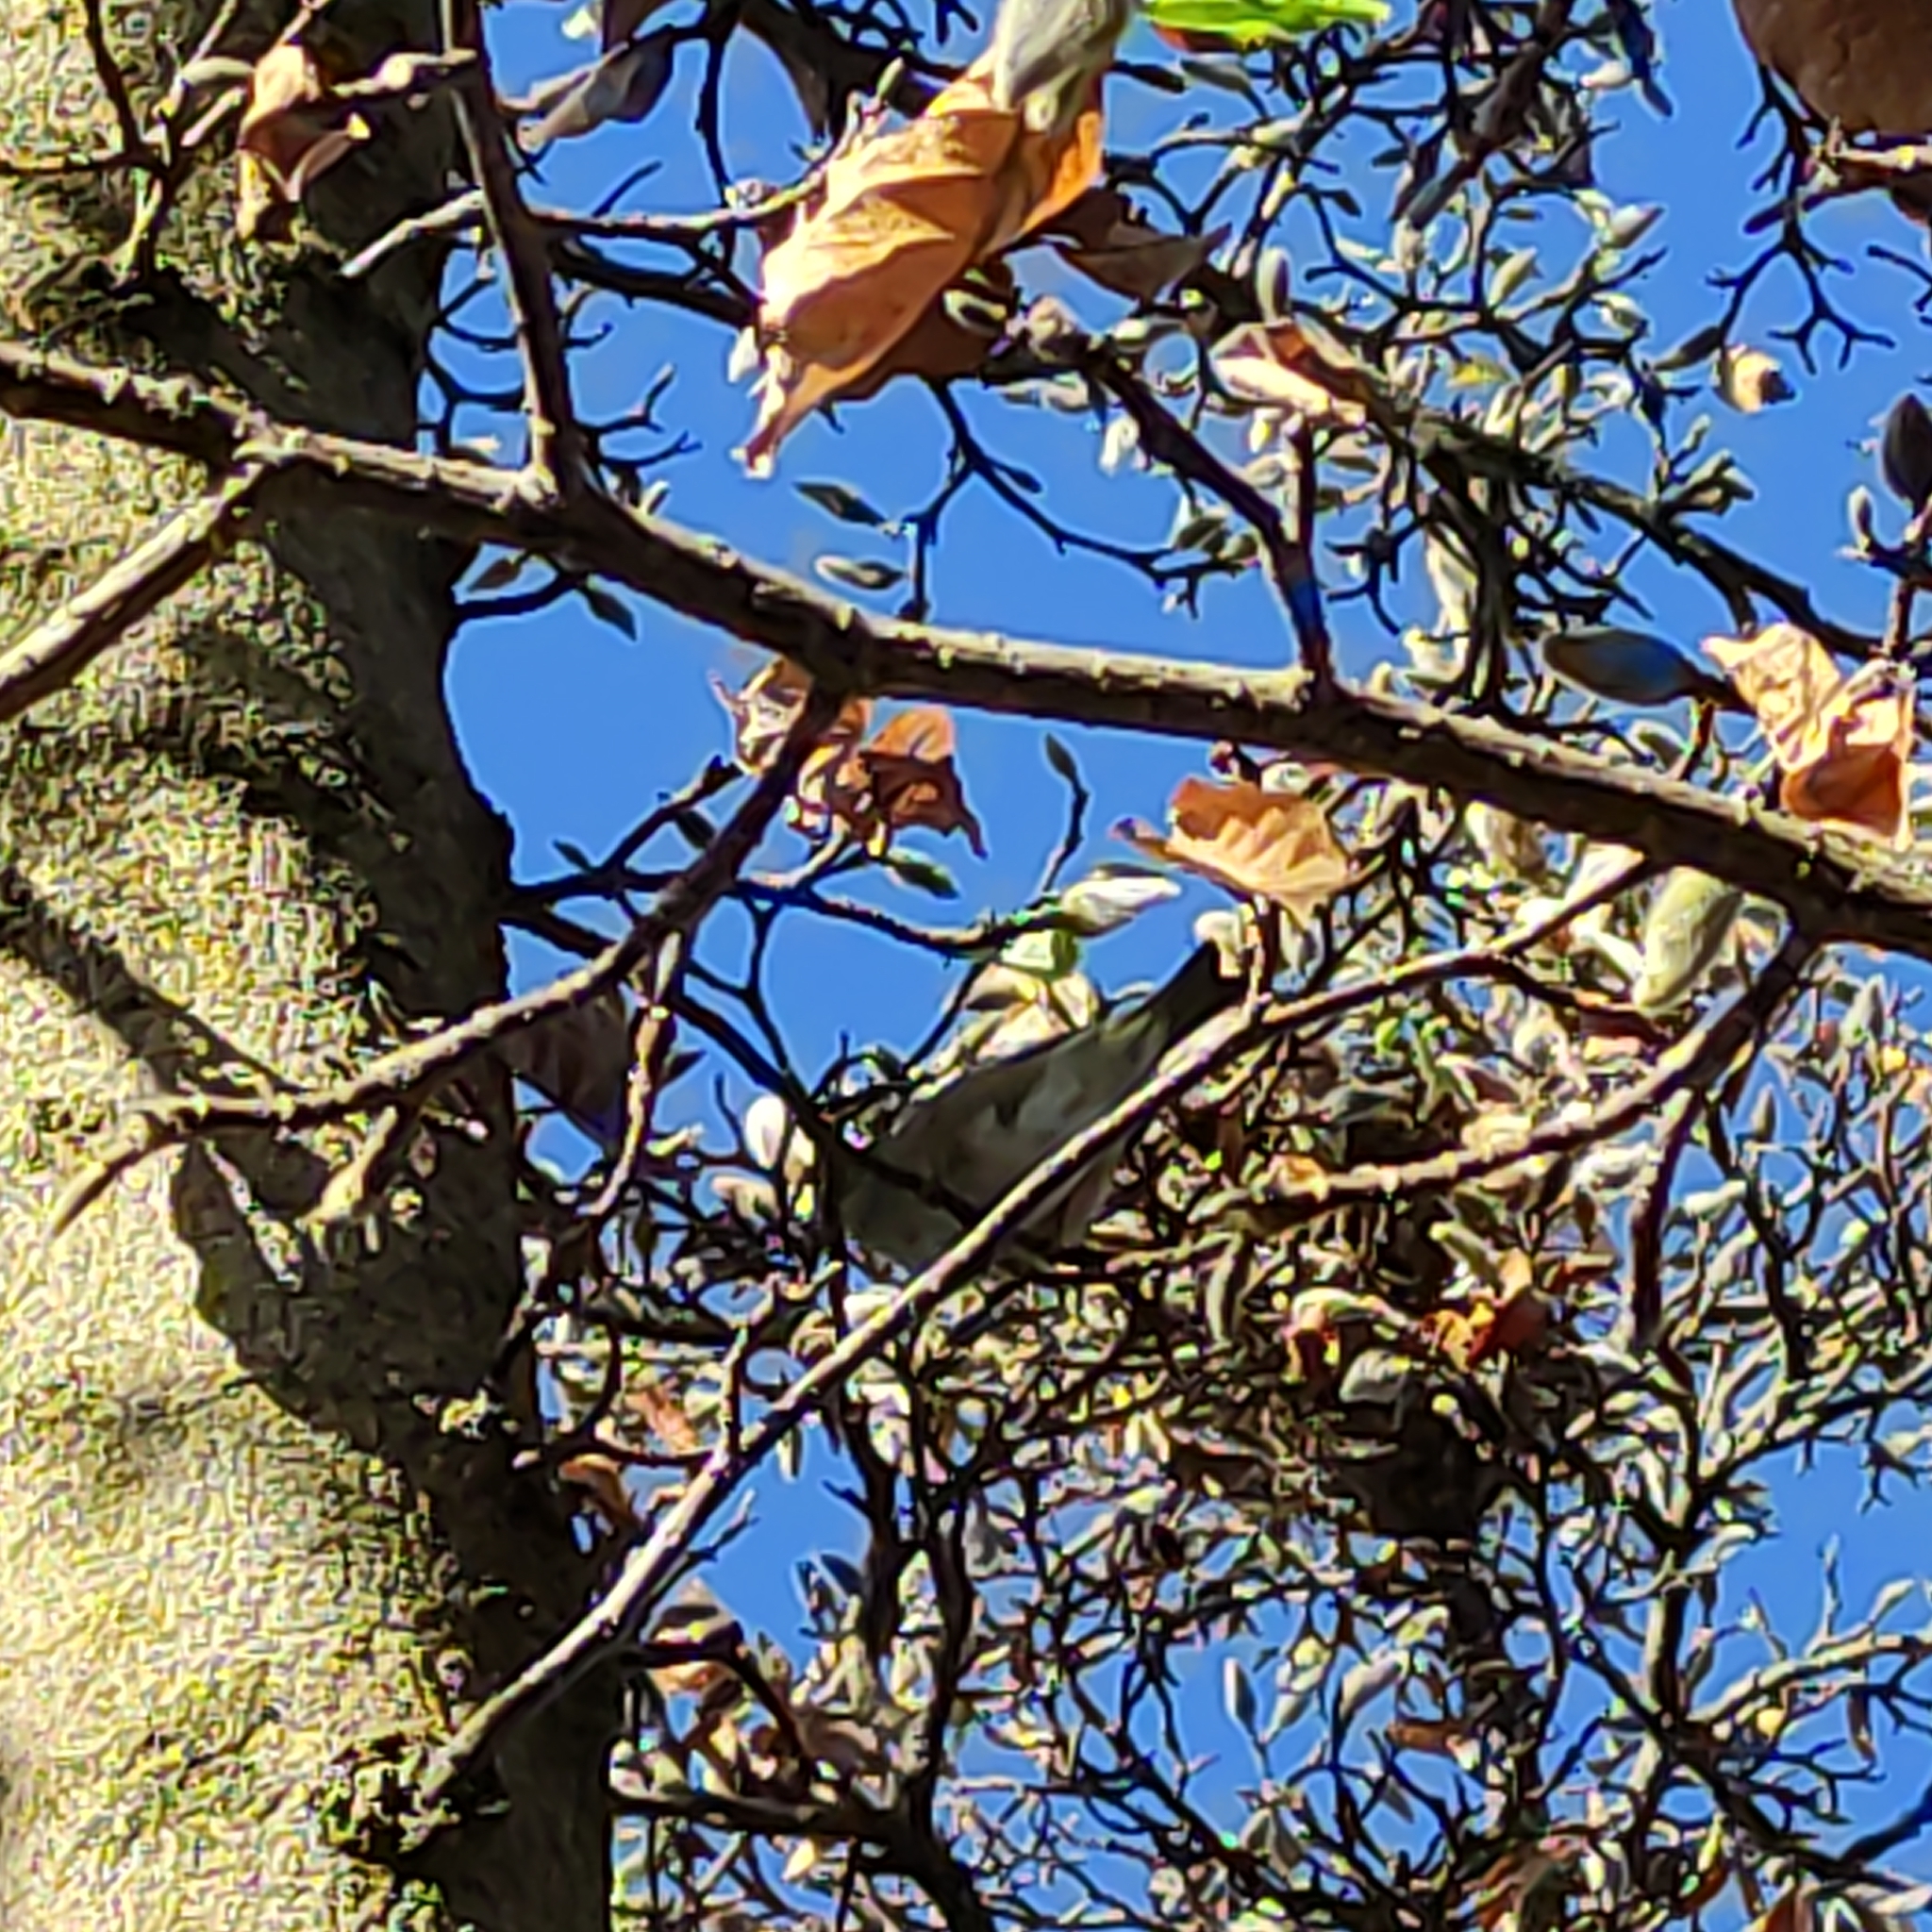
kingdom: Animalia
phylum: Chordata
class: Aves
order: Passeriformes
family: Passeridae
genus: Passer
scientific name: Passer domesticus
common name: House sparrow
